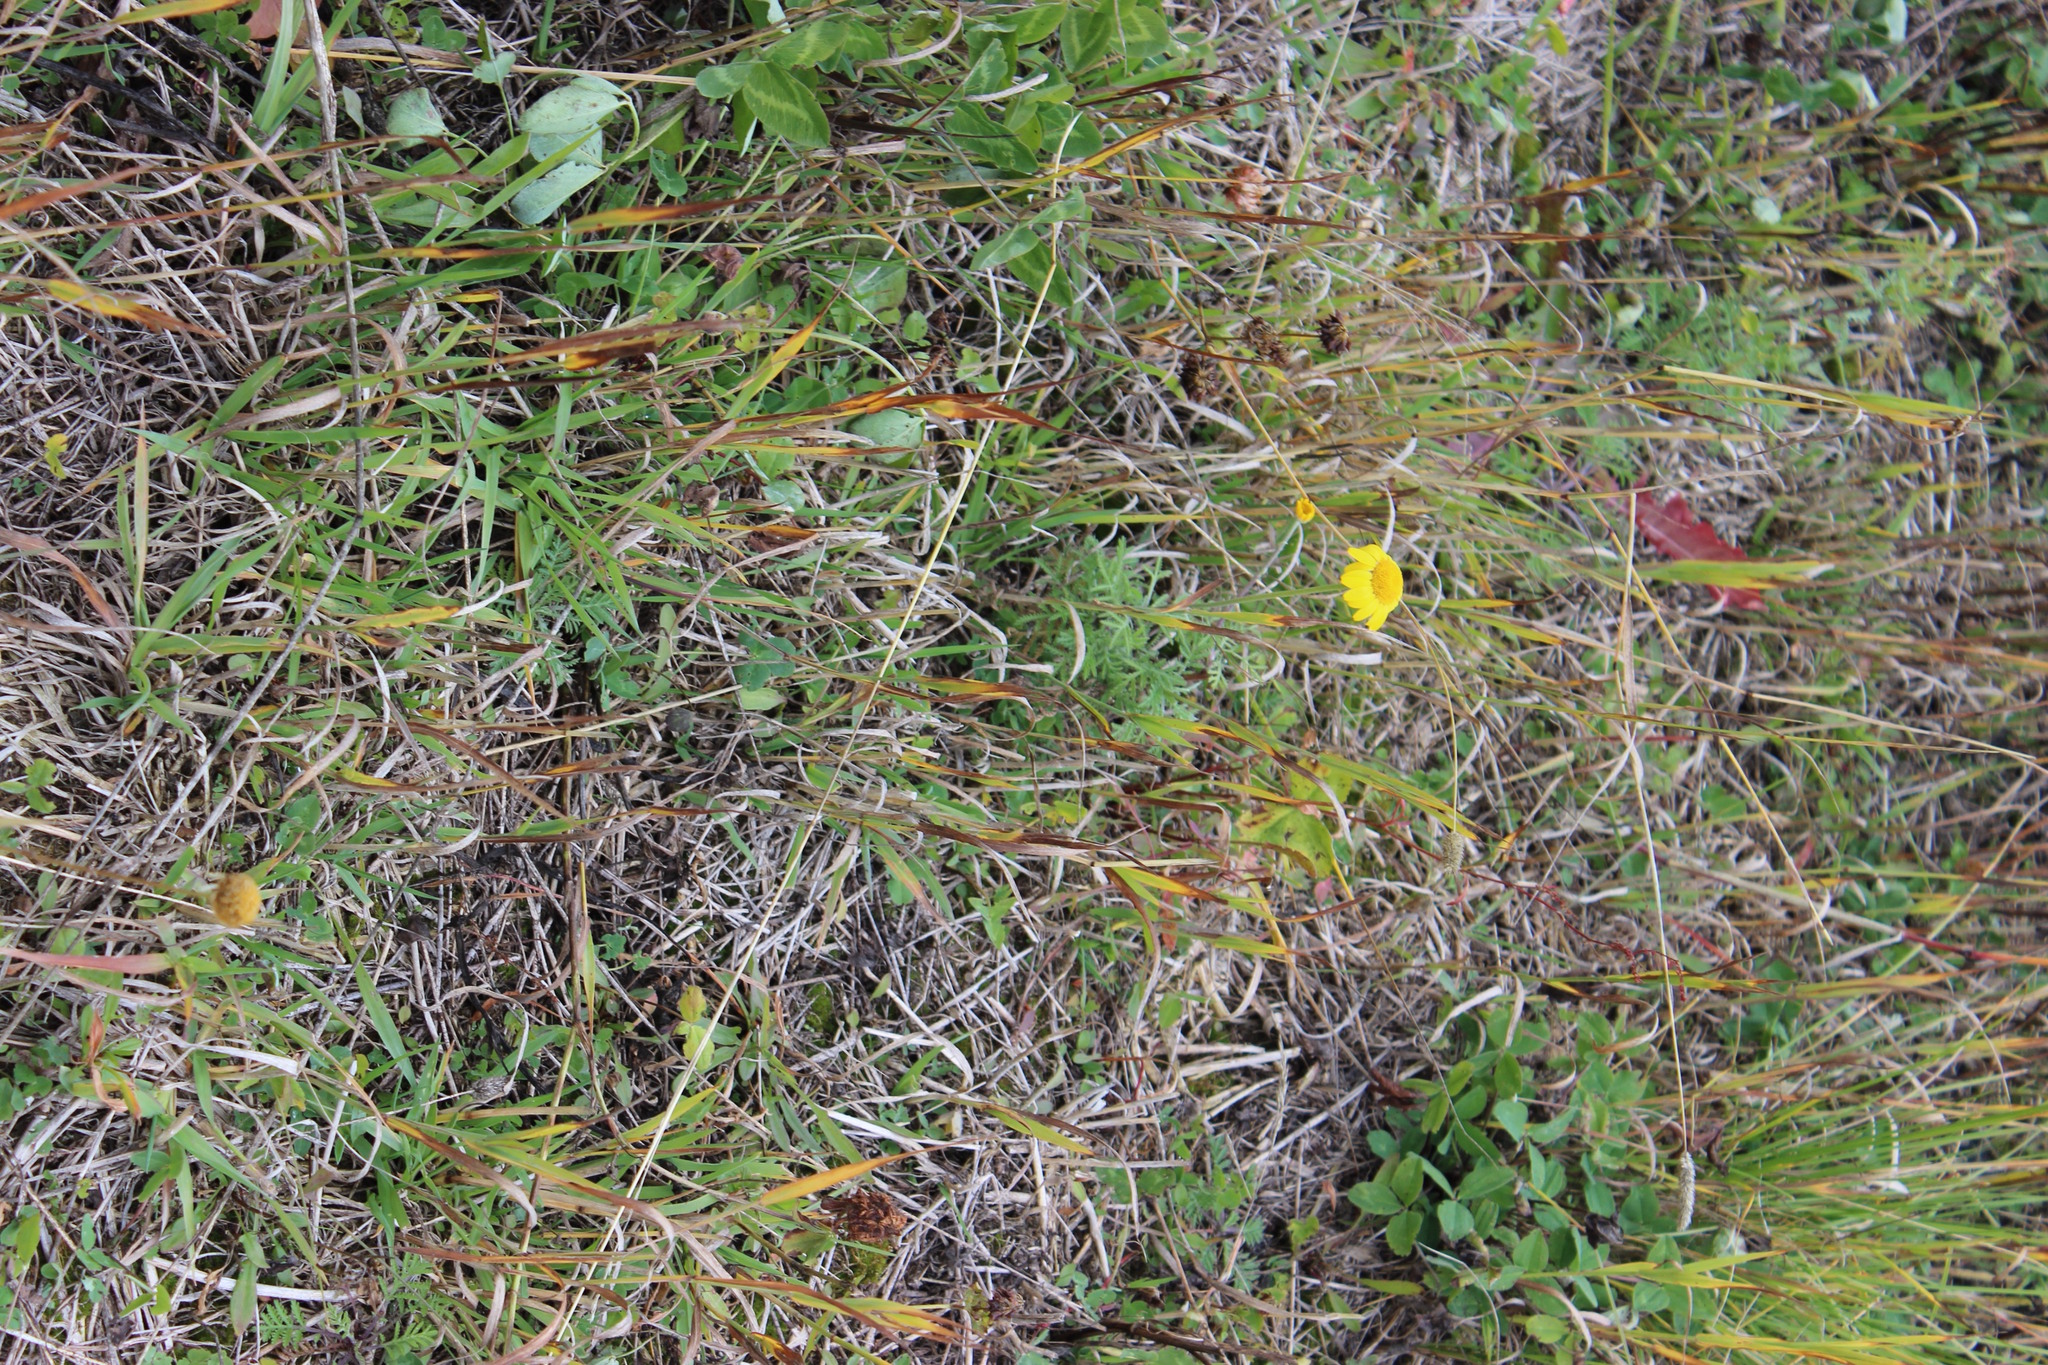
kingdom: Plantae
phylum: Tracheophyta
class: Magnoliopsida
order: Asterales
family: Asteraceae
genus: Cota
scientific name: Cota tinctoria
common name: Golden chamomile
